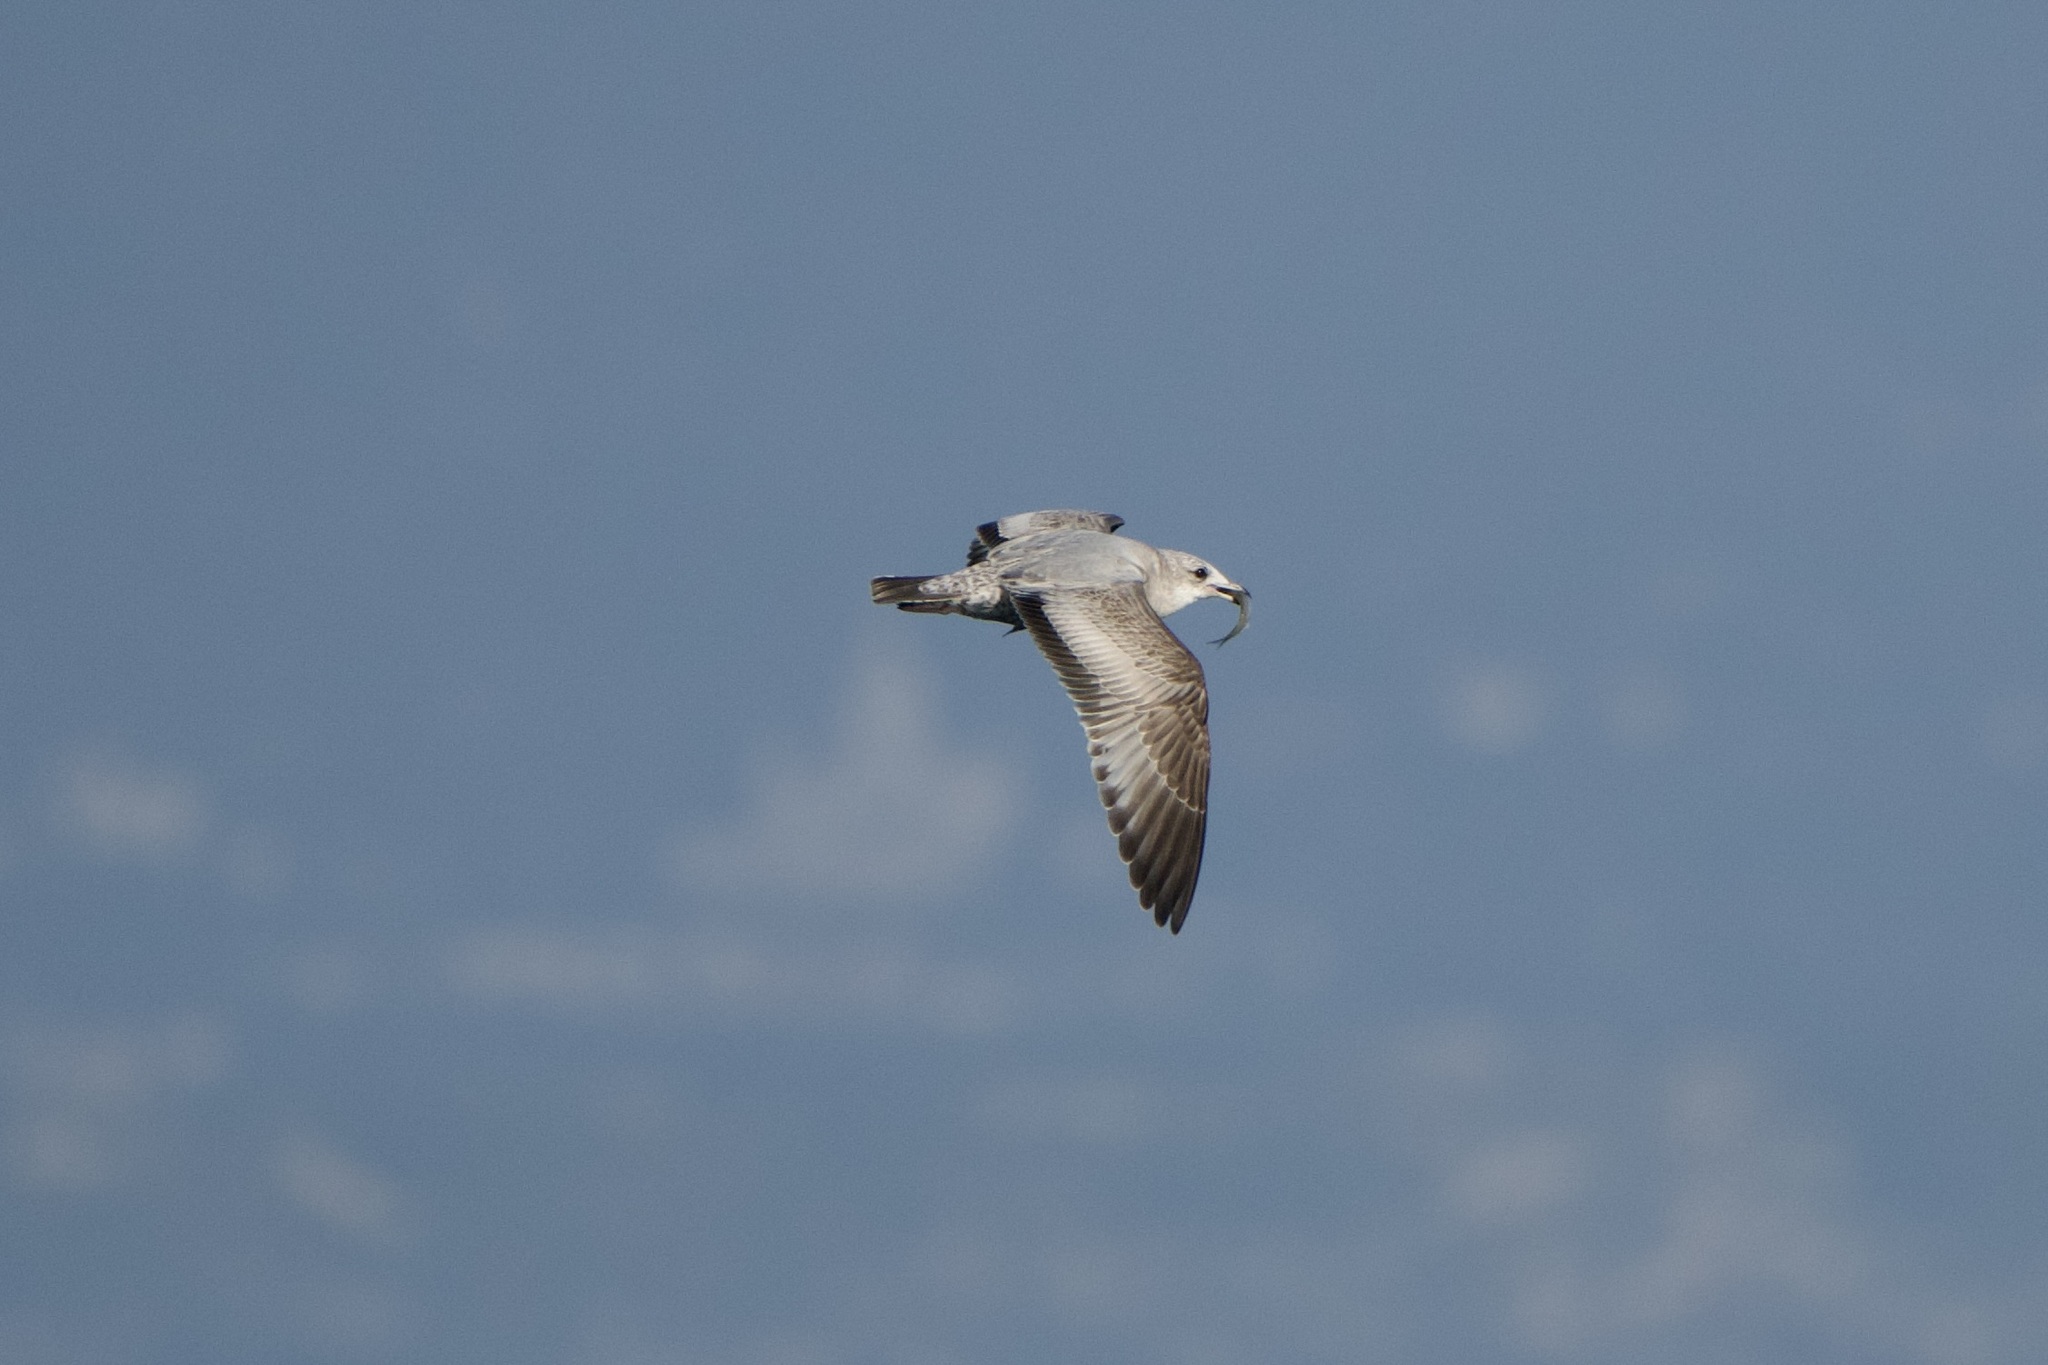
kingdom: Animalia
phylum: Chordata
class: Aves
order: Charadriiformes
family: Laridae
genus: Larus
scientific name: Larus brachyrhynchus
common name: Short-billed gull
